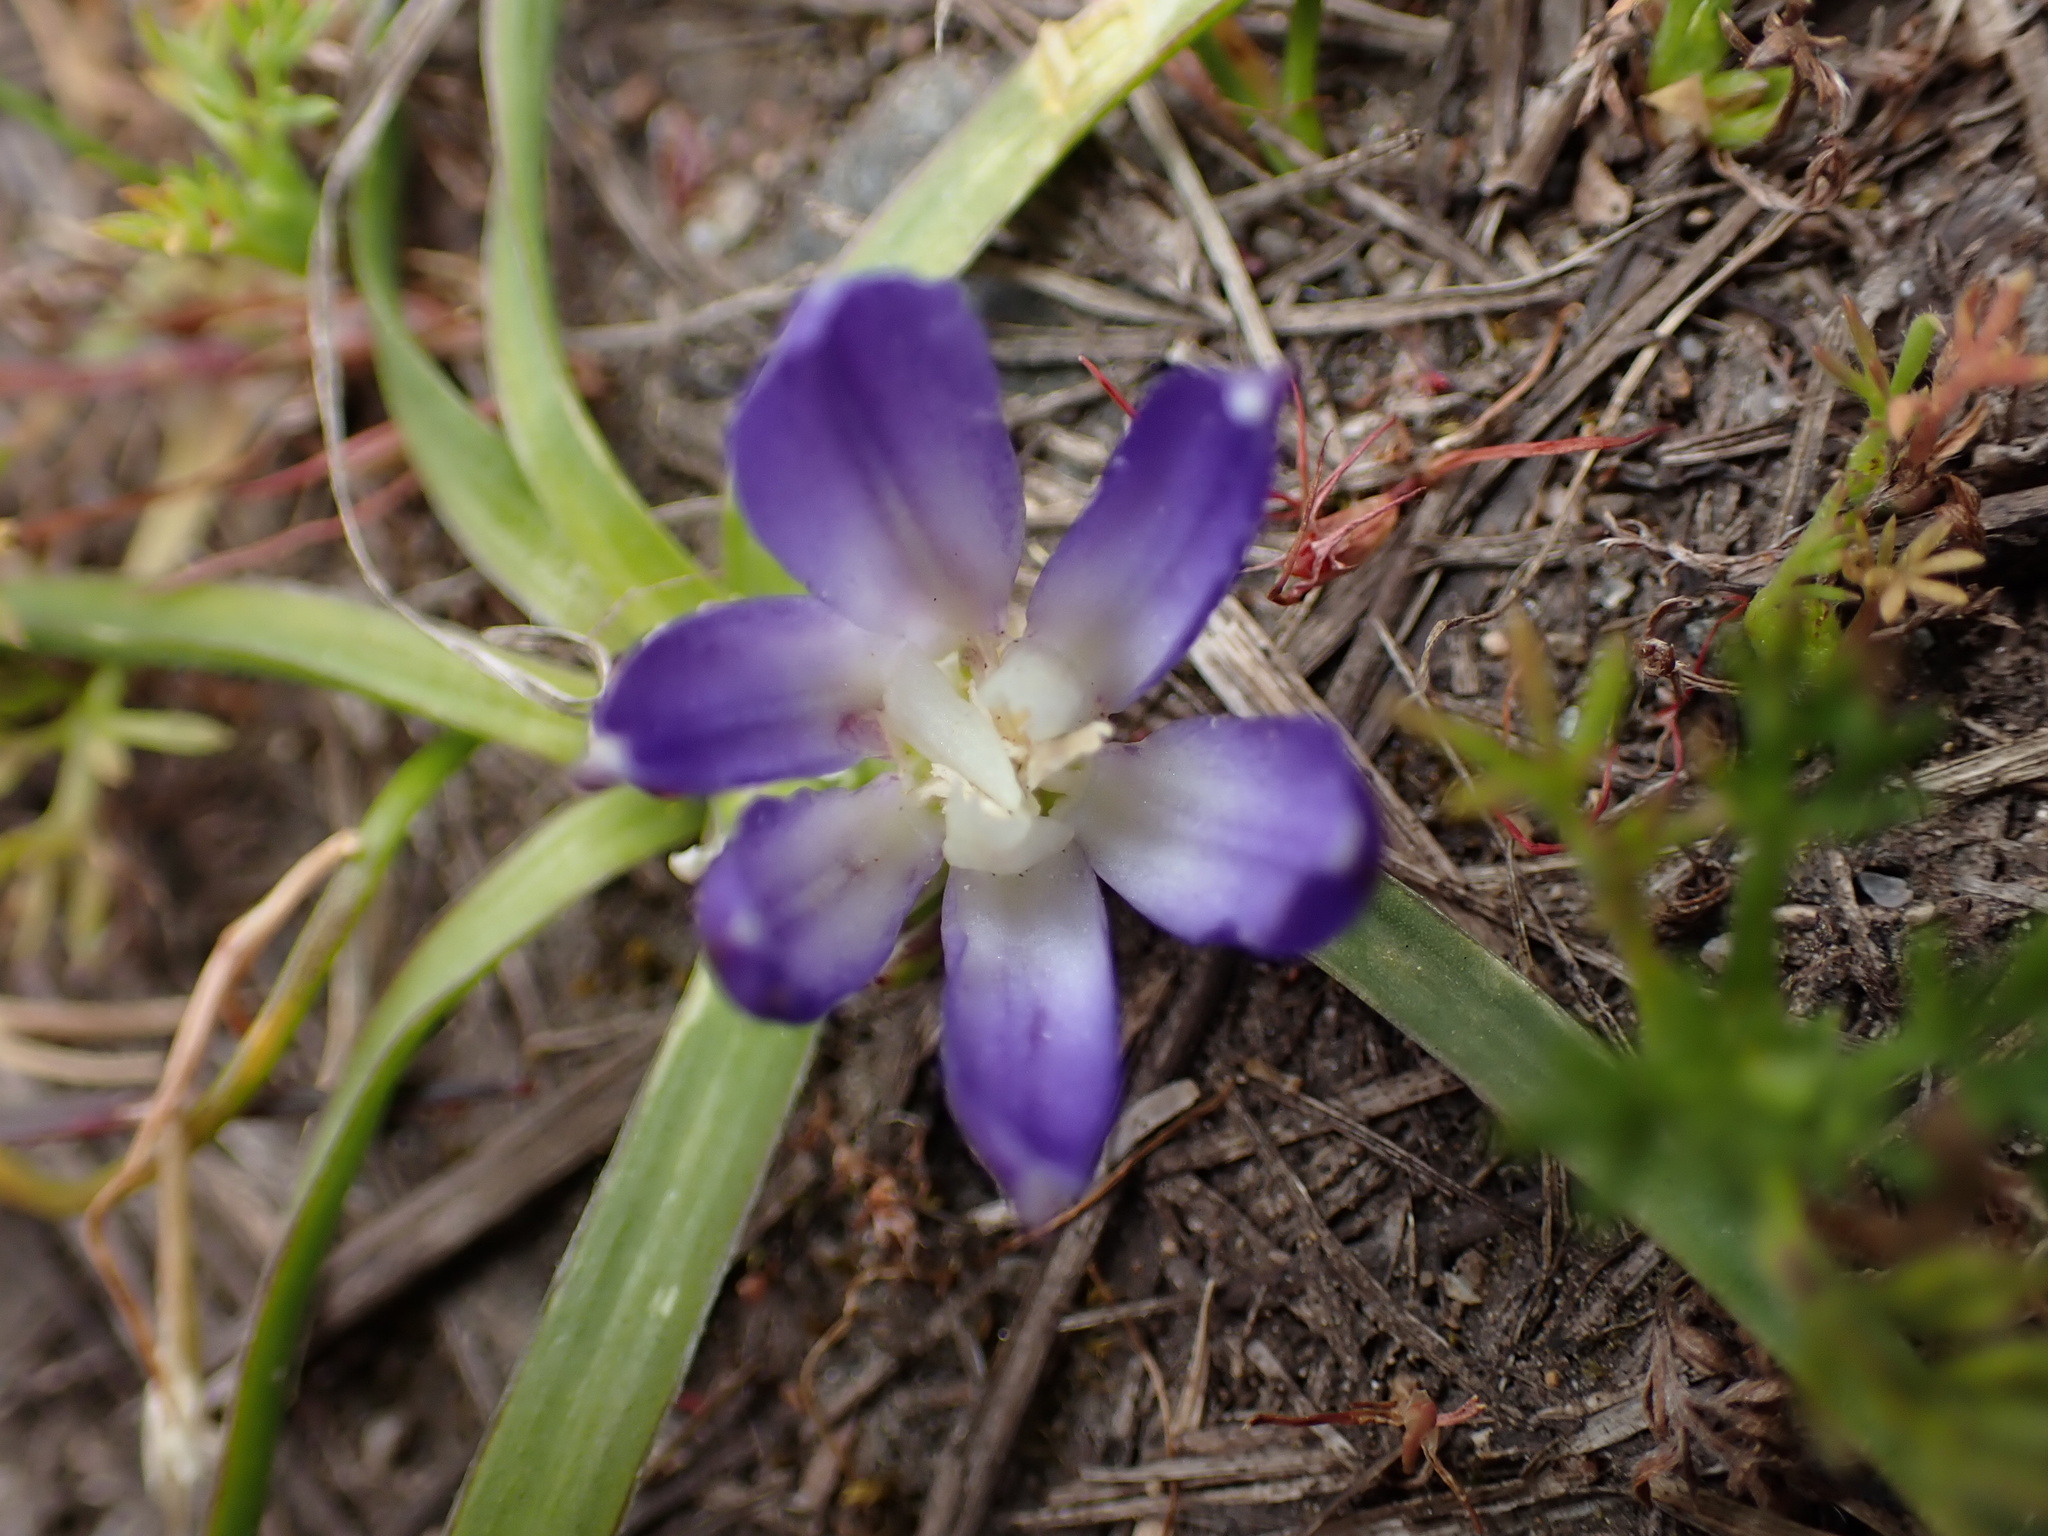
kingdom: Plantae
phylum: Tracheophyta
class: Liliopsida
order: Asparagales
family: Asparagaceae
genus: Brodiaea
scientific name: Brodiaea terrestris
